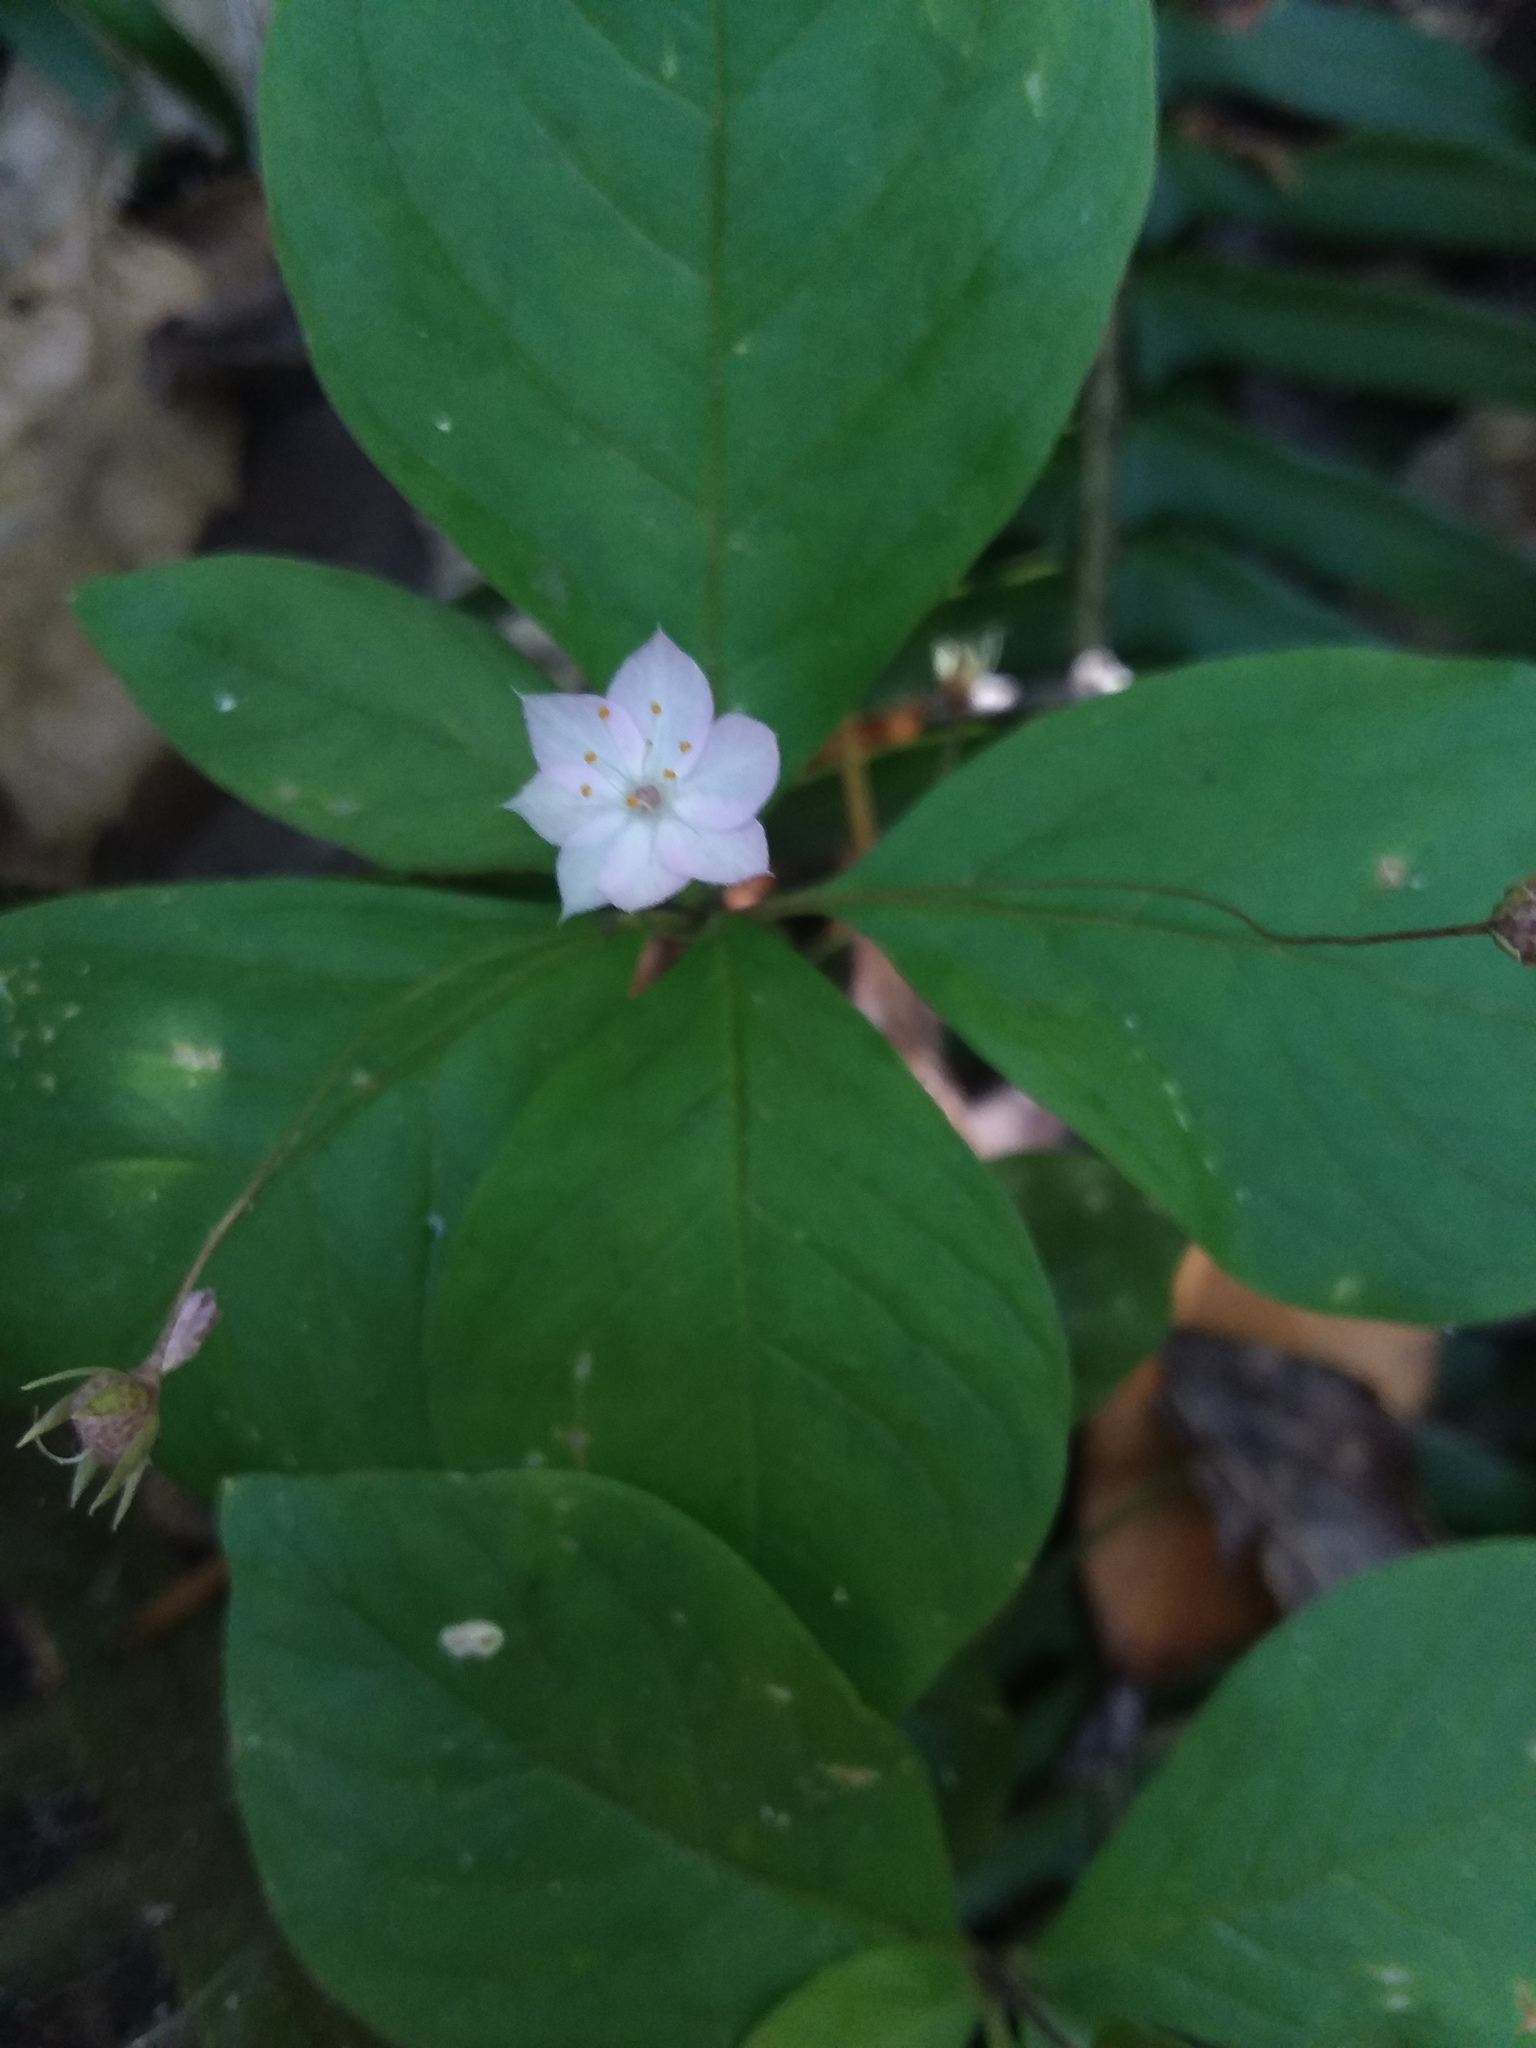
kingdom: Plantae
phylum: Tracheophyta
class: Magnoliopsida
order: Ericales
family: Primulaceae
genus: Lysimachia
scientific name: Lysimachia latifolia
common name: Pacific starflower
